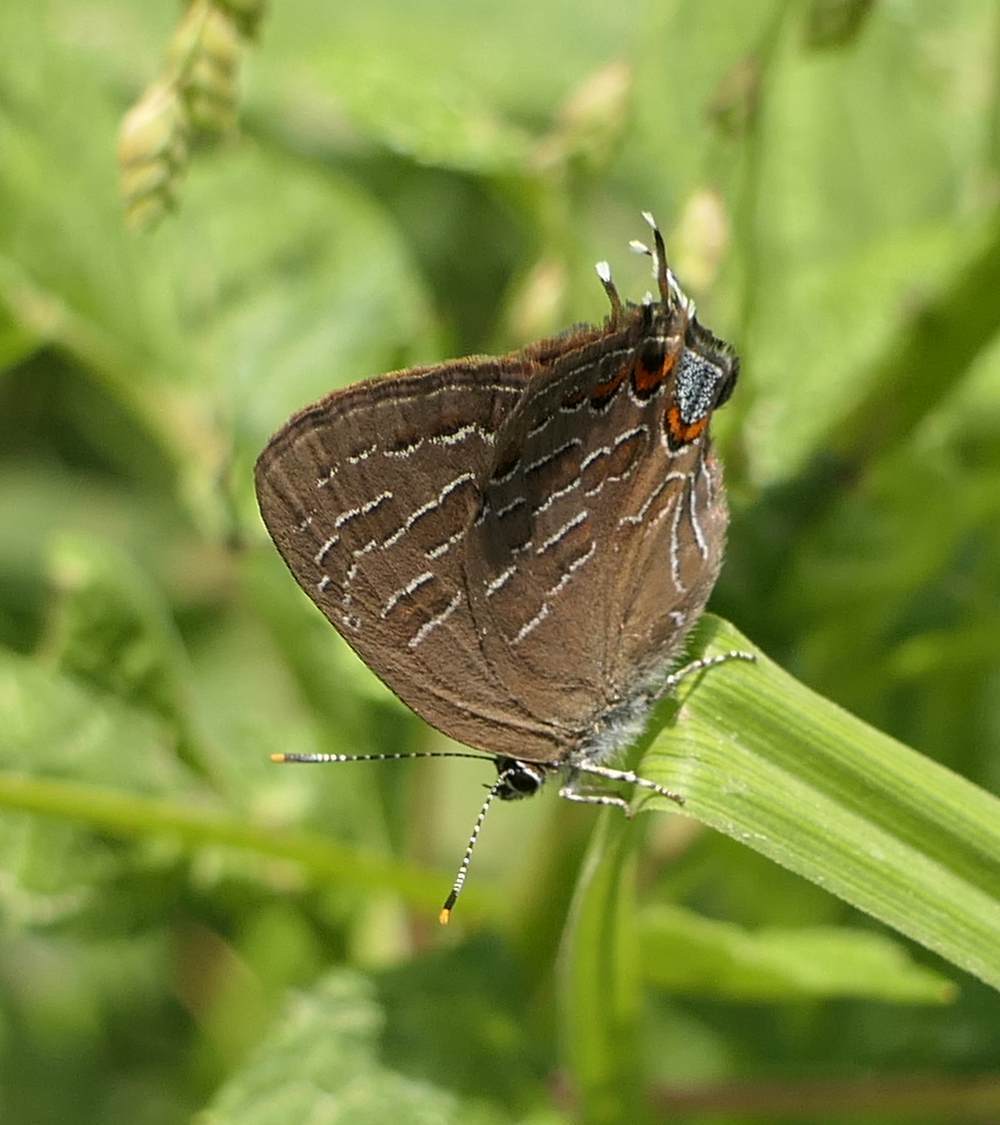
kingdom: Animalia
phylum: Arthropoda
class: Insecta
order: Lepidoptera
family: Lycaenidae
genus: Satyrium
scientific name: Satyrium liparops
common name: Striped hairstreak
